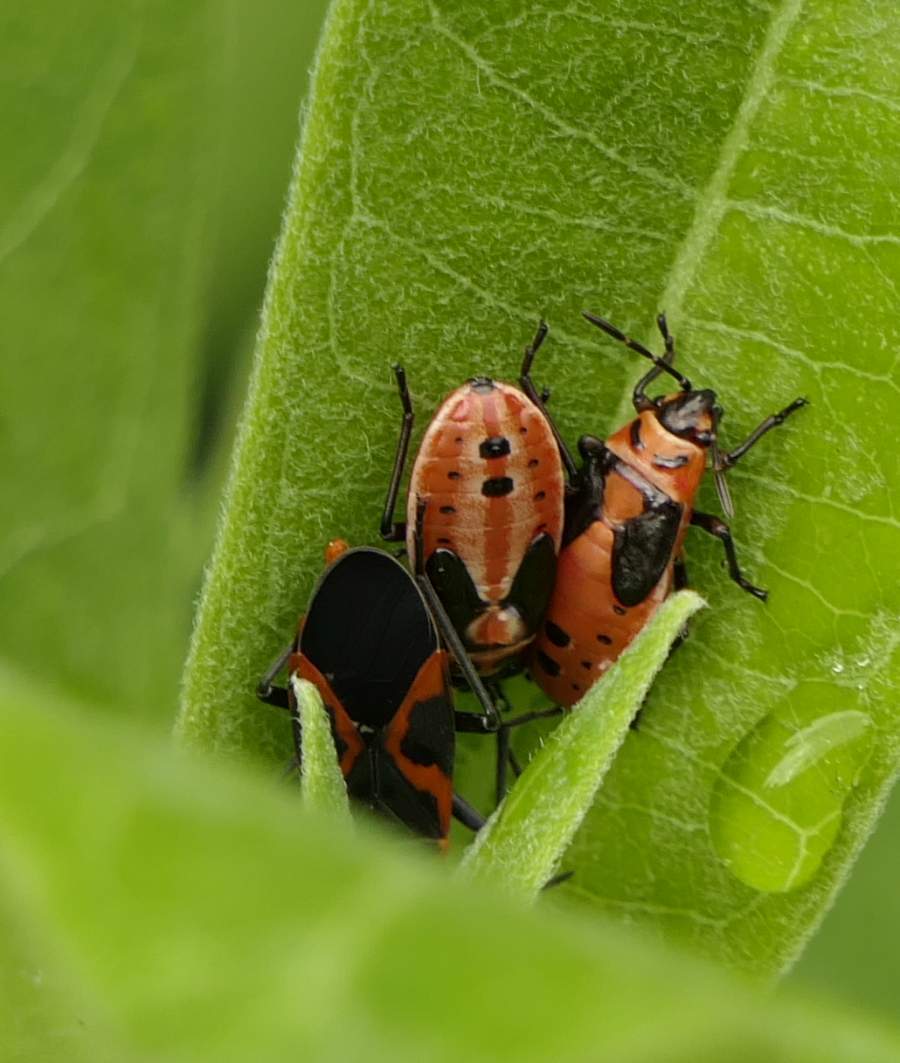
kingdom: Animalia
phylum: Arthropoda
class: Insecta
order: Hemiptera
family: Lygaeidae
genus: Lygaeus
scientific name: Lygaeus kalmii
